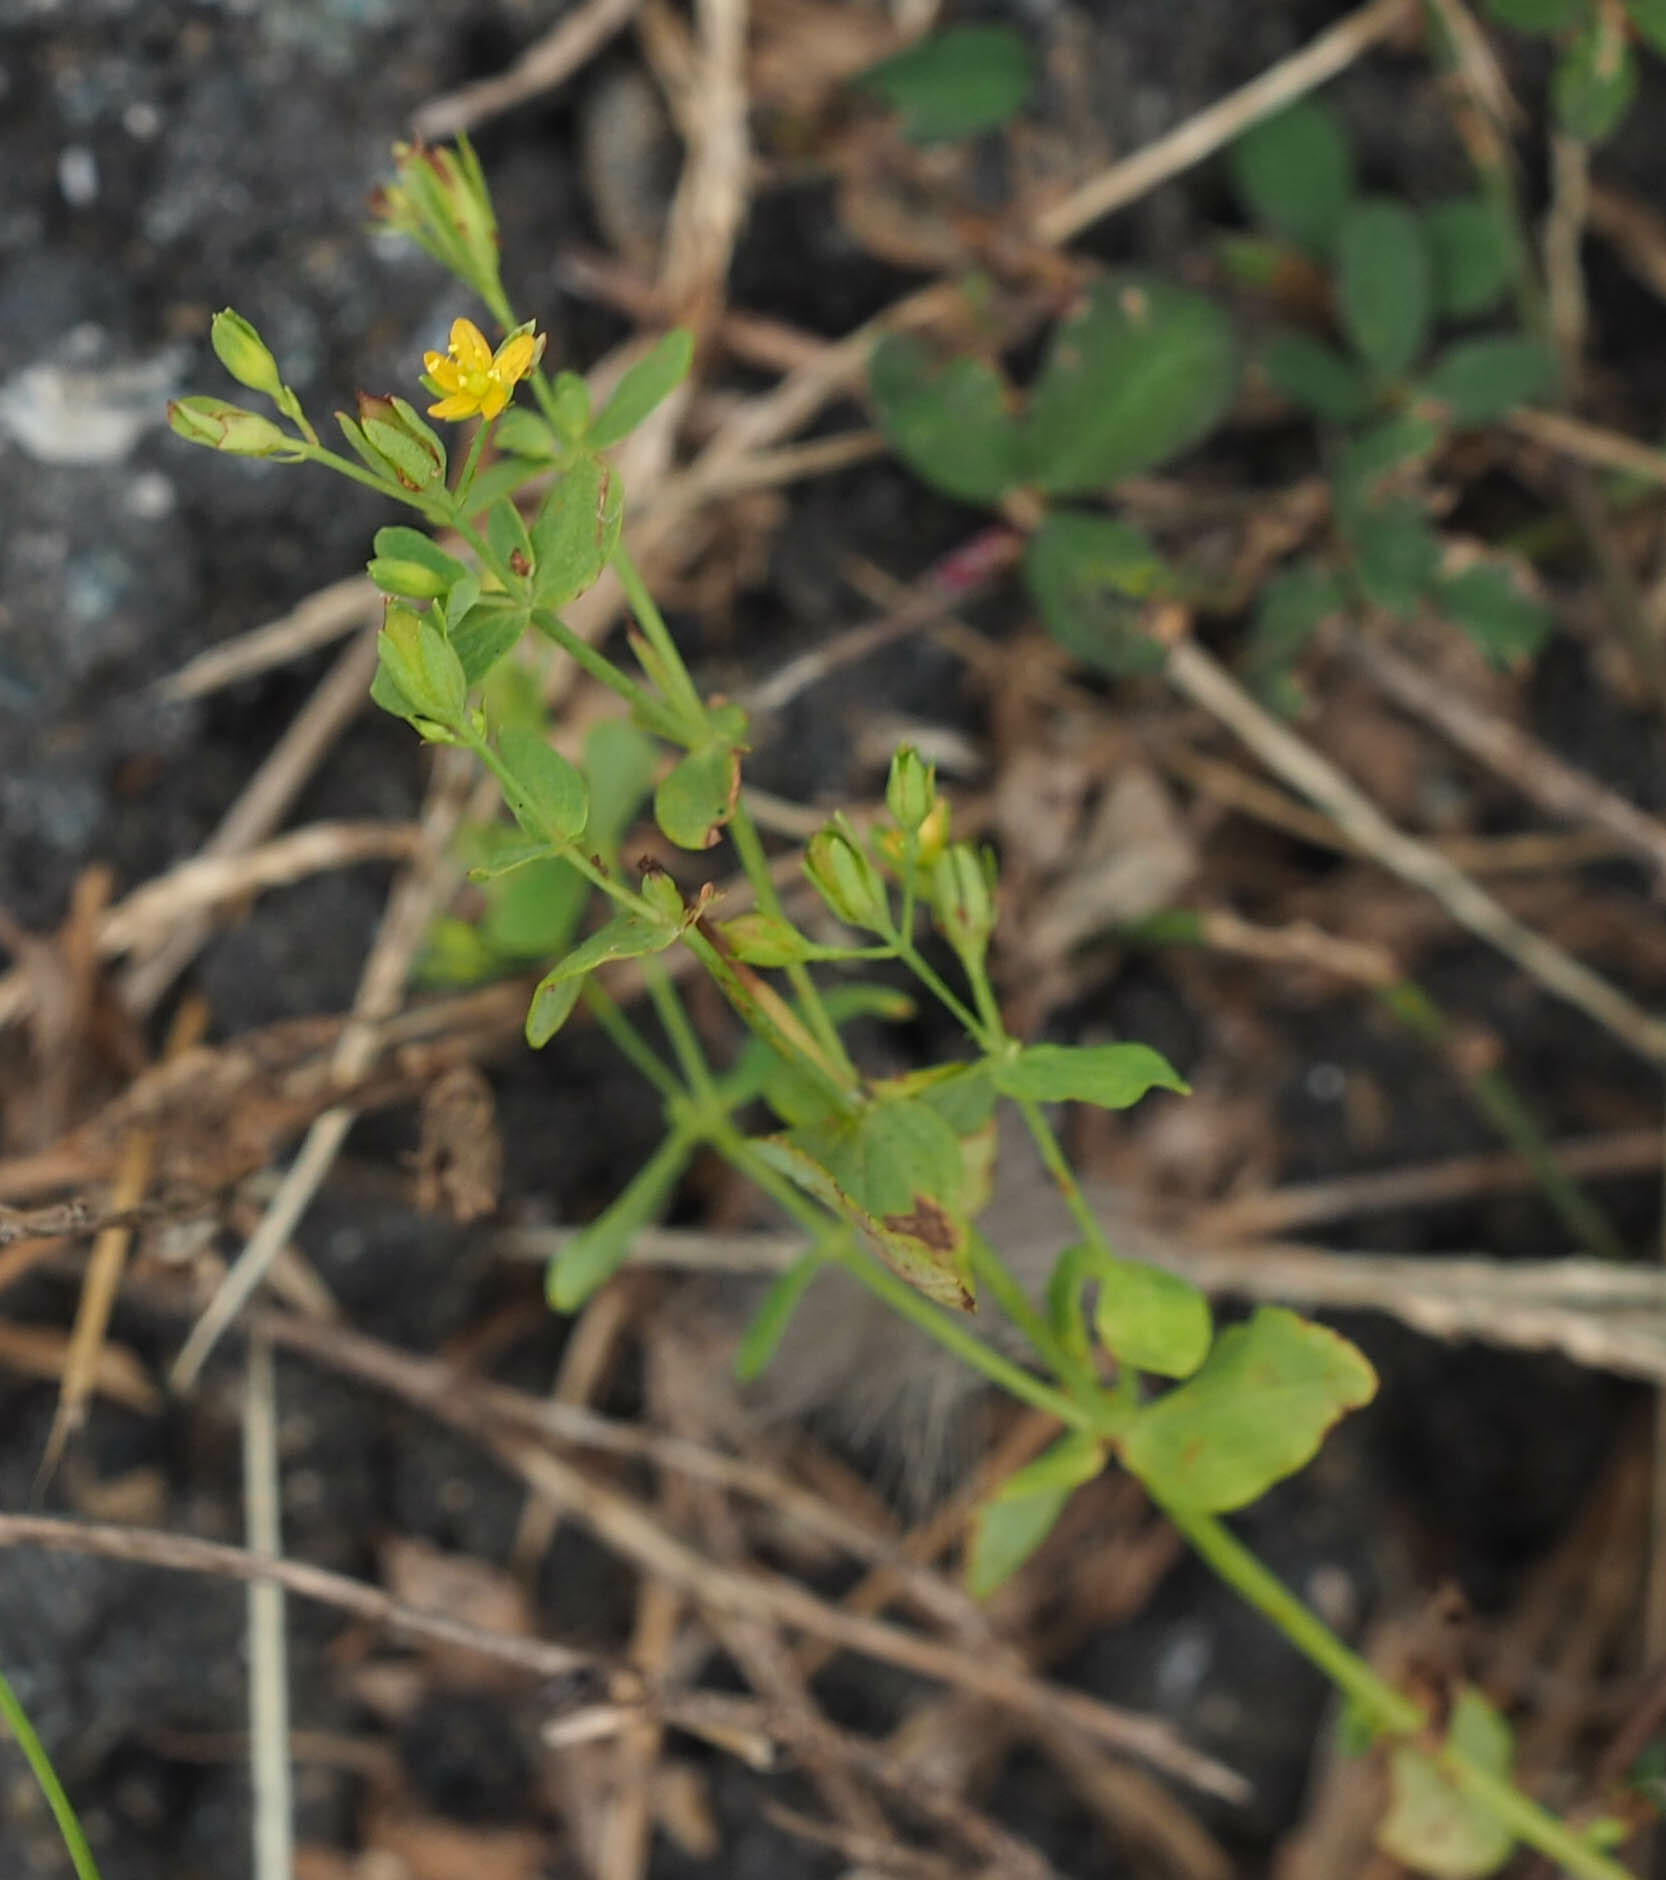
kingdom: Plantae
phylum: Tracheophyta
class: Magnoliopsida
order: Malpighiales
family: Hypericaceae
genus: Hypericum
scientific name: Hypericum mutilum
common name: Dwarf st. john's-wort
